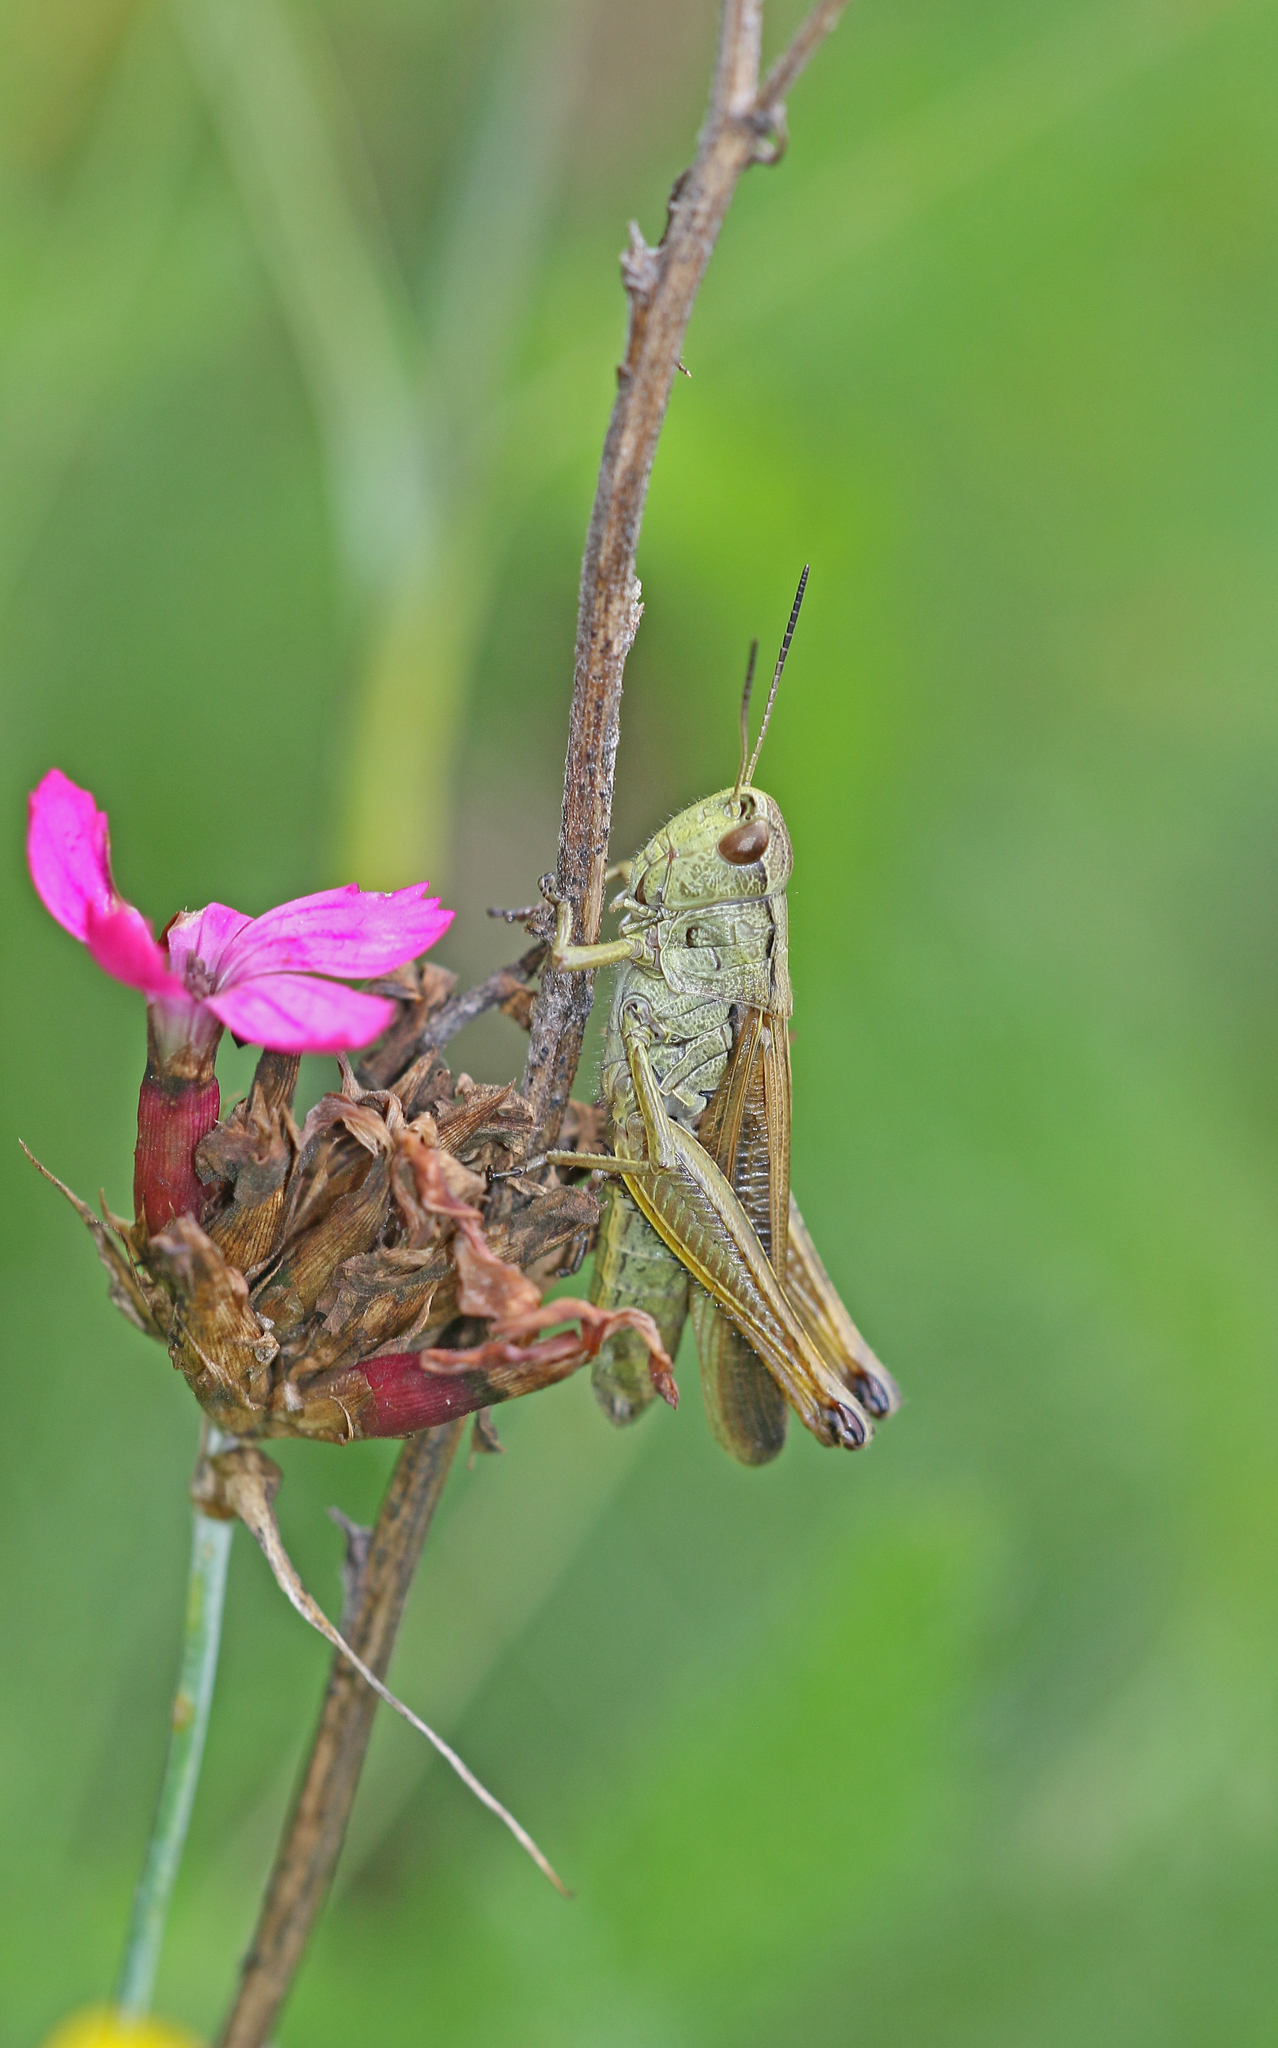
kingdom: Animalia
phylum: Arthropoda
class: Insecta
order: Orthoptera
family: Acrididae
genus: Stauroderus
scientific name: Stauroderus scalaris
